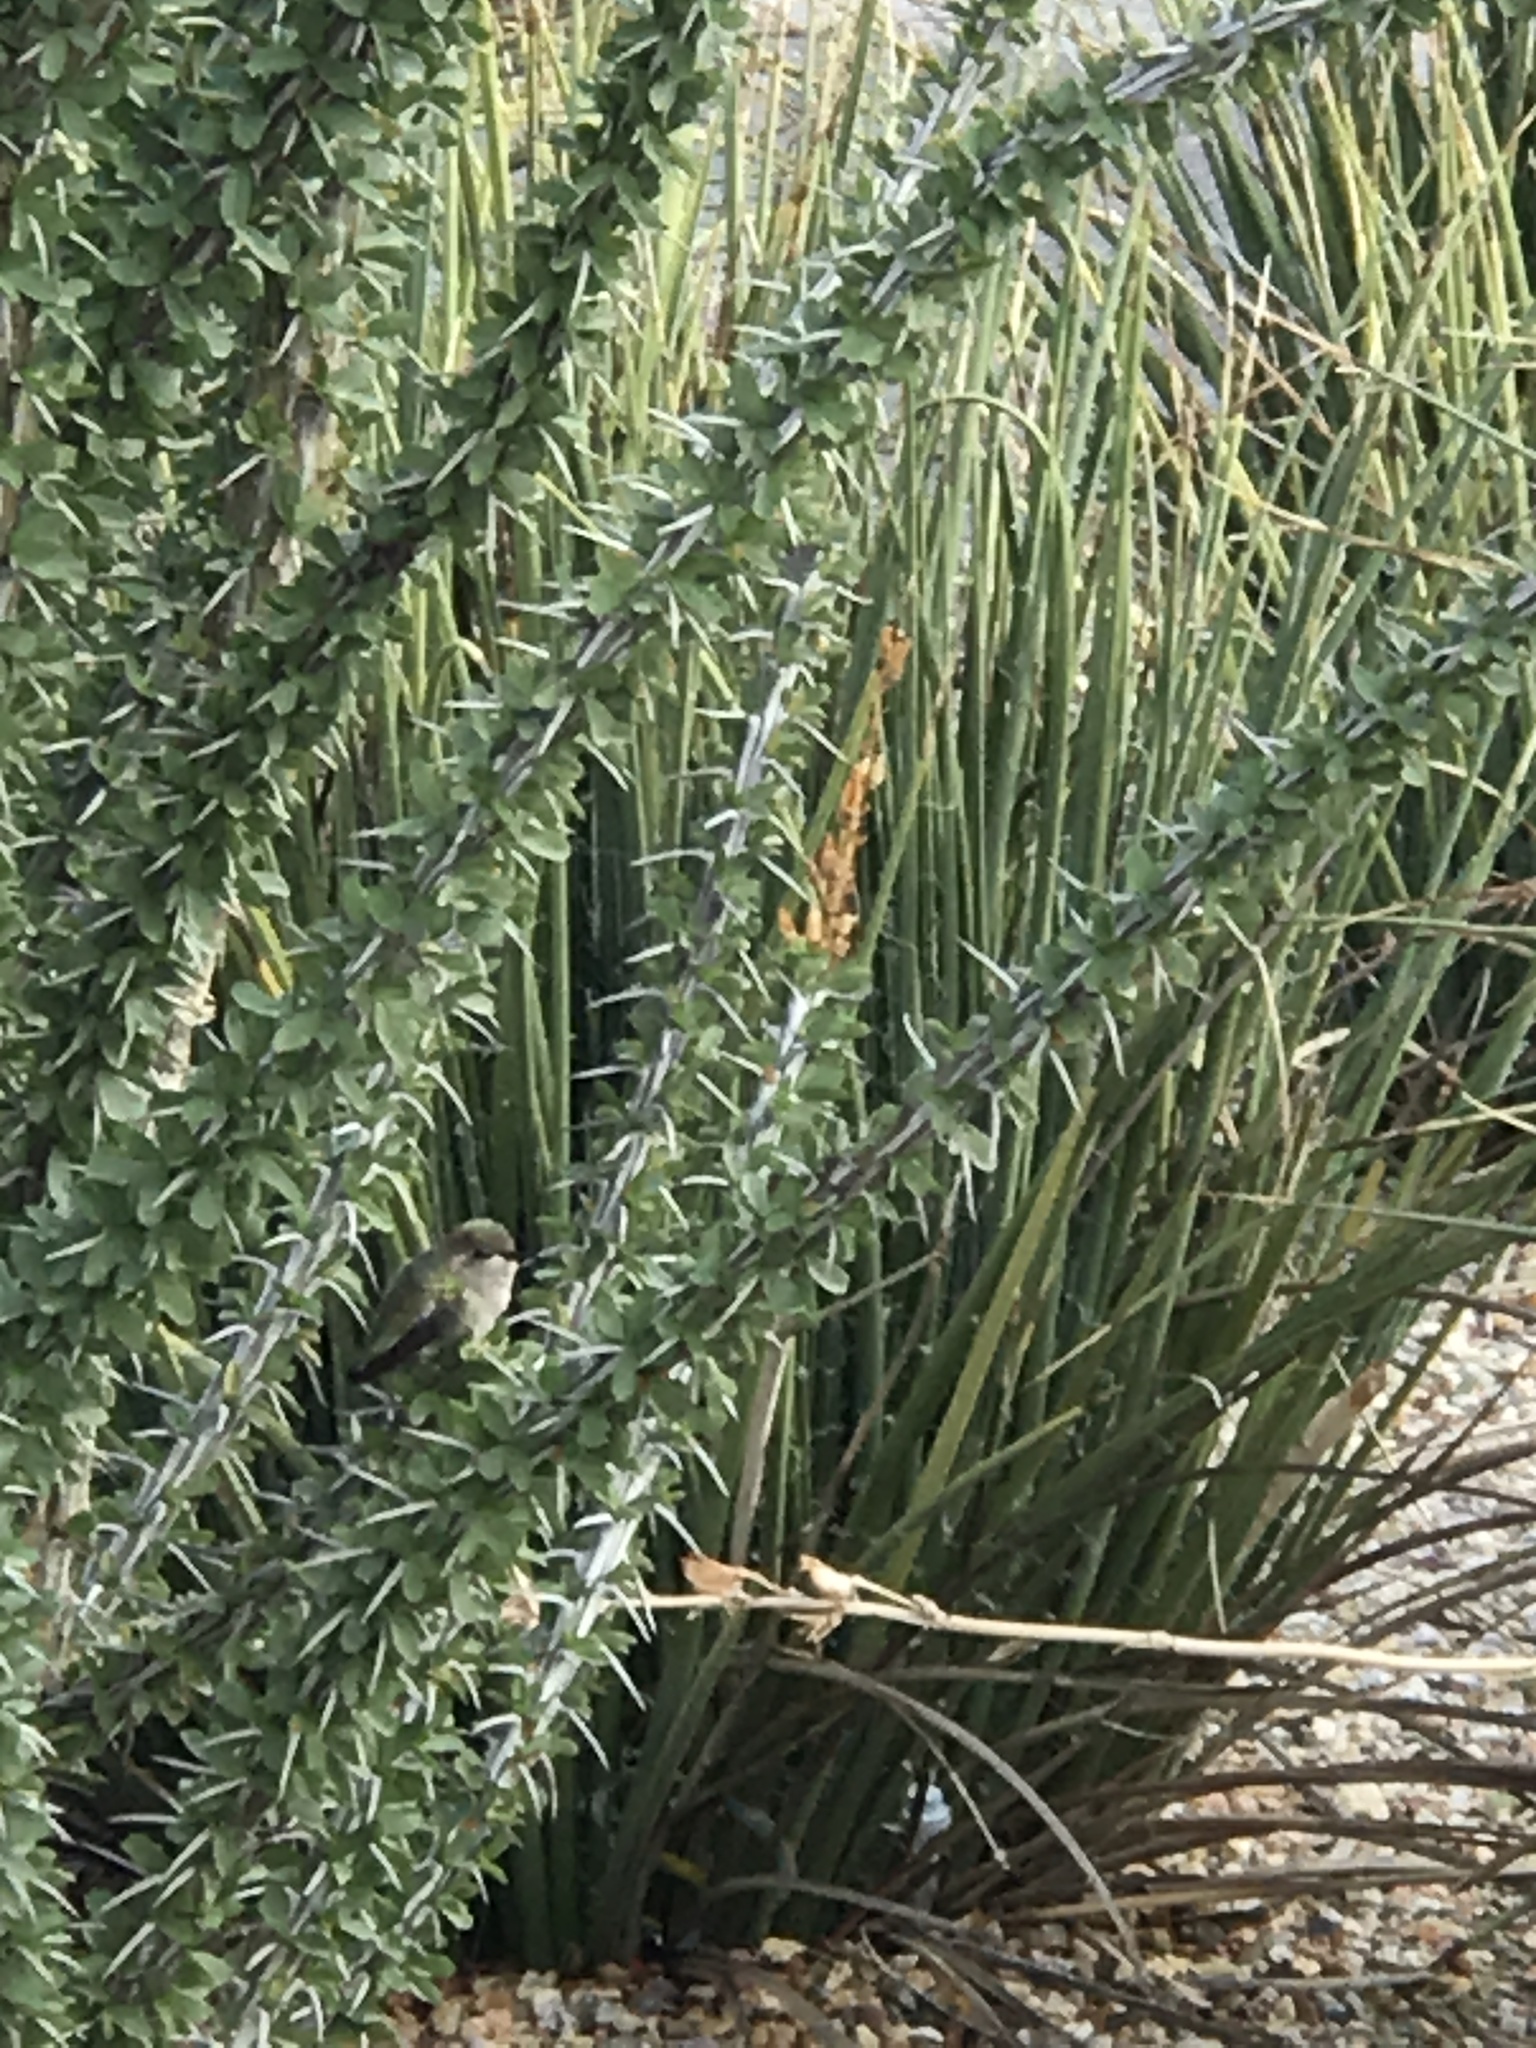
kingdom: Animalia
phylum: Chordata
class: Aves
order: Apodiformes
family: Trochilidae
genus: Calypte
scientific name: Calypte costae
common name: Costa's hummingbird
